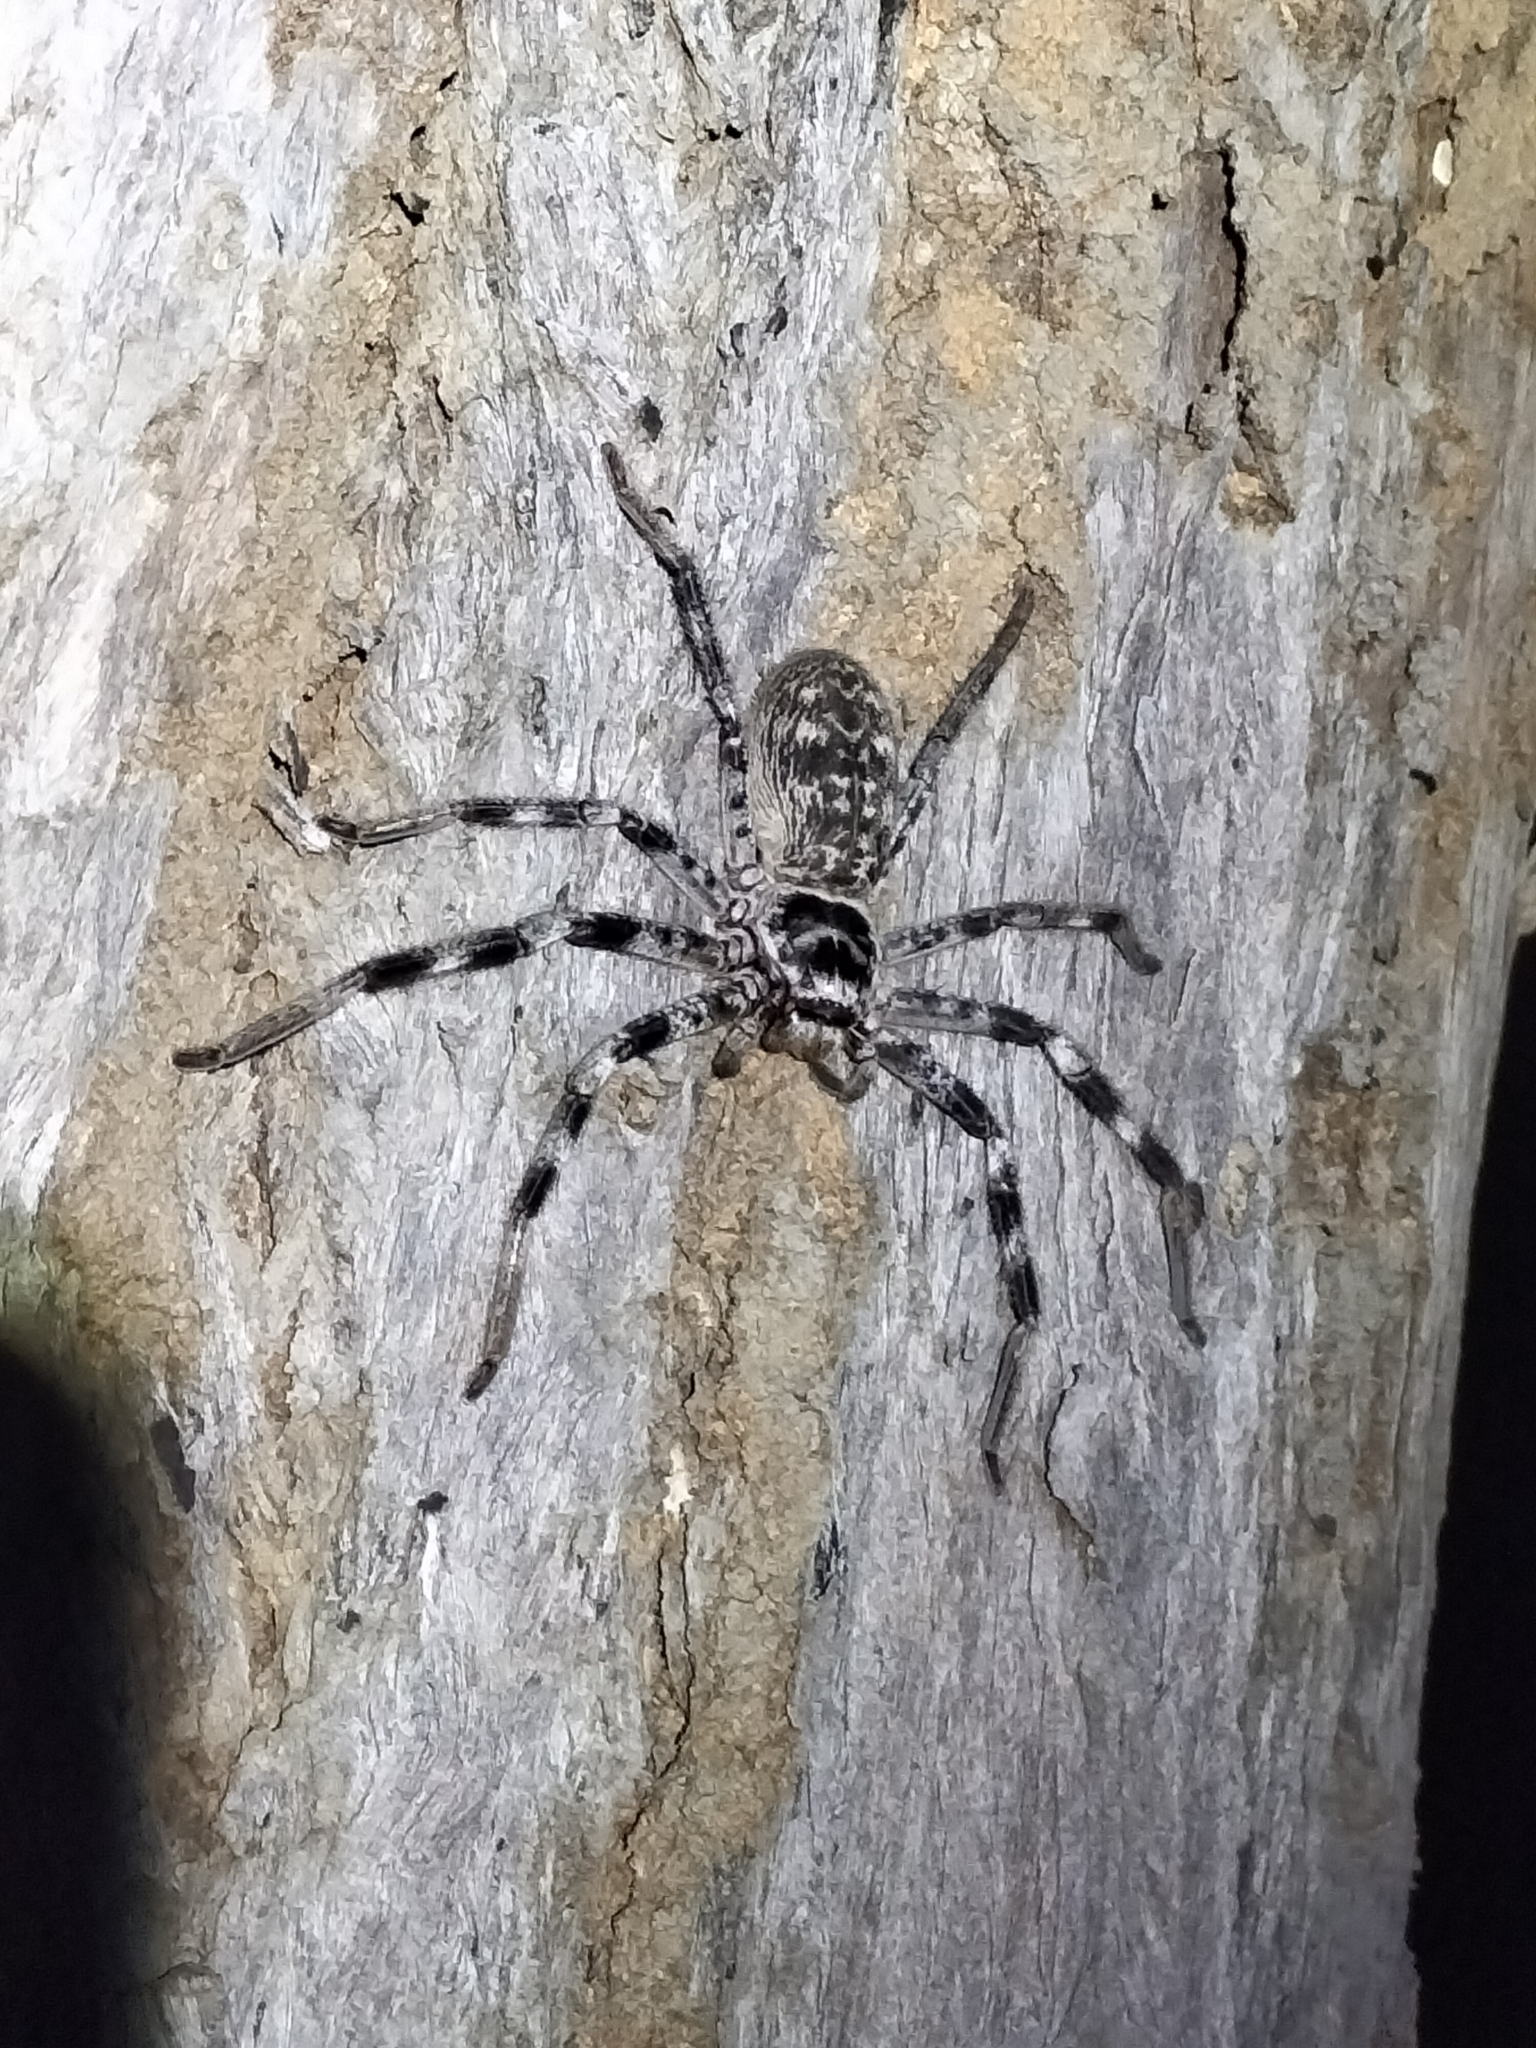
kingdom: Animalia
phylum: Arthropoda
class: Arachnida
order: Araneae
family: Sparassidae
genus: Holconia
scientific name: Holconia hirsuta
